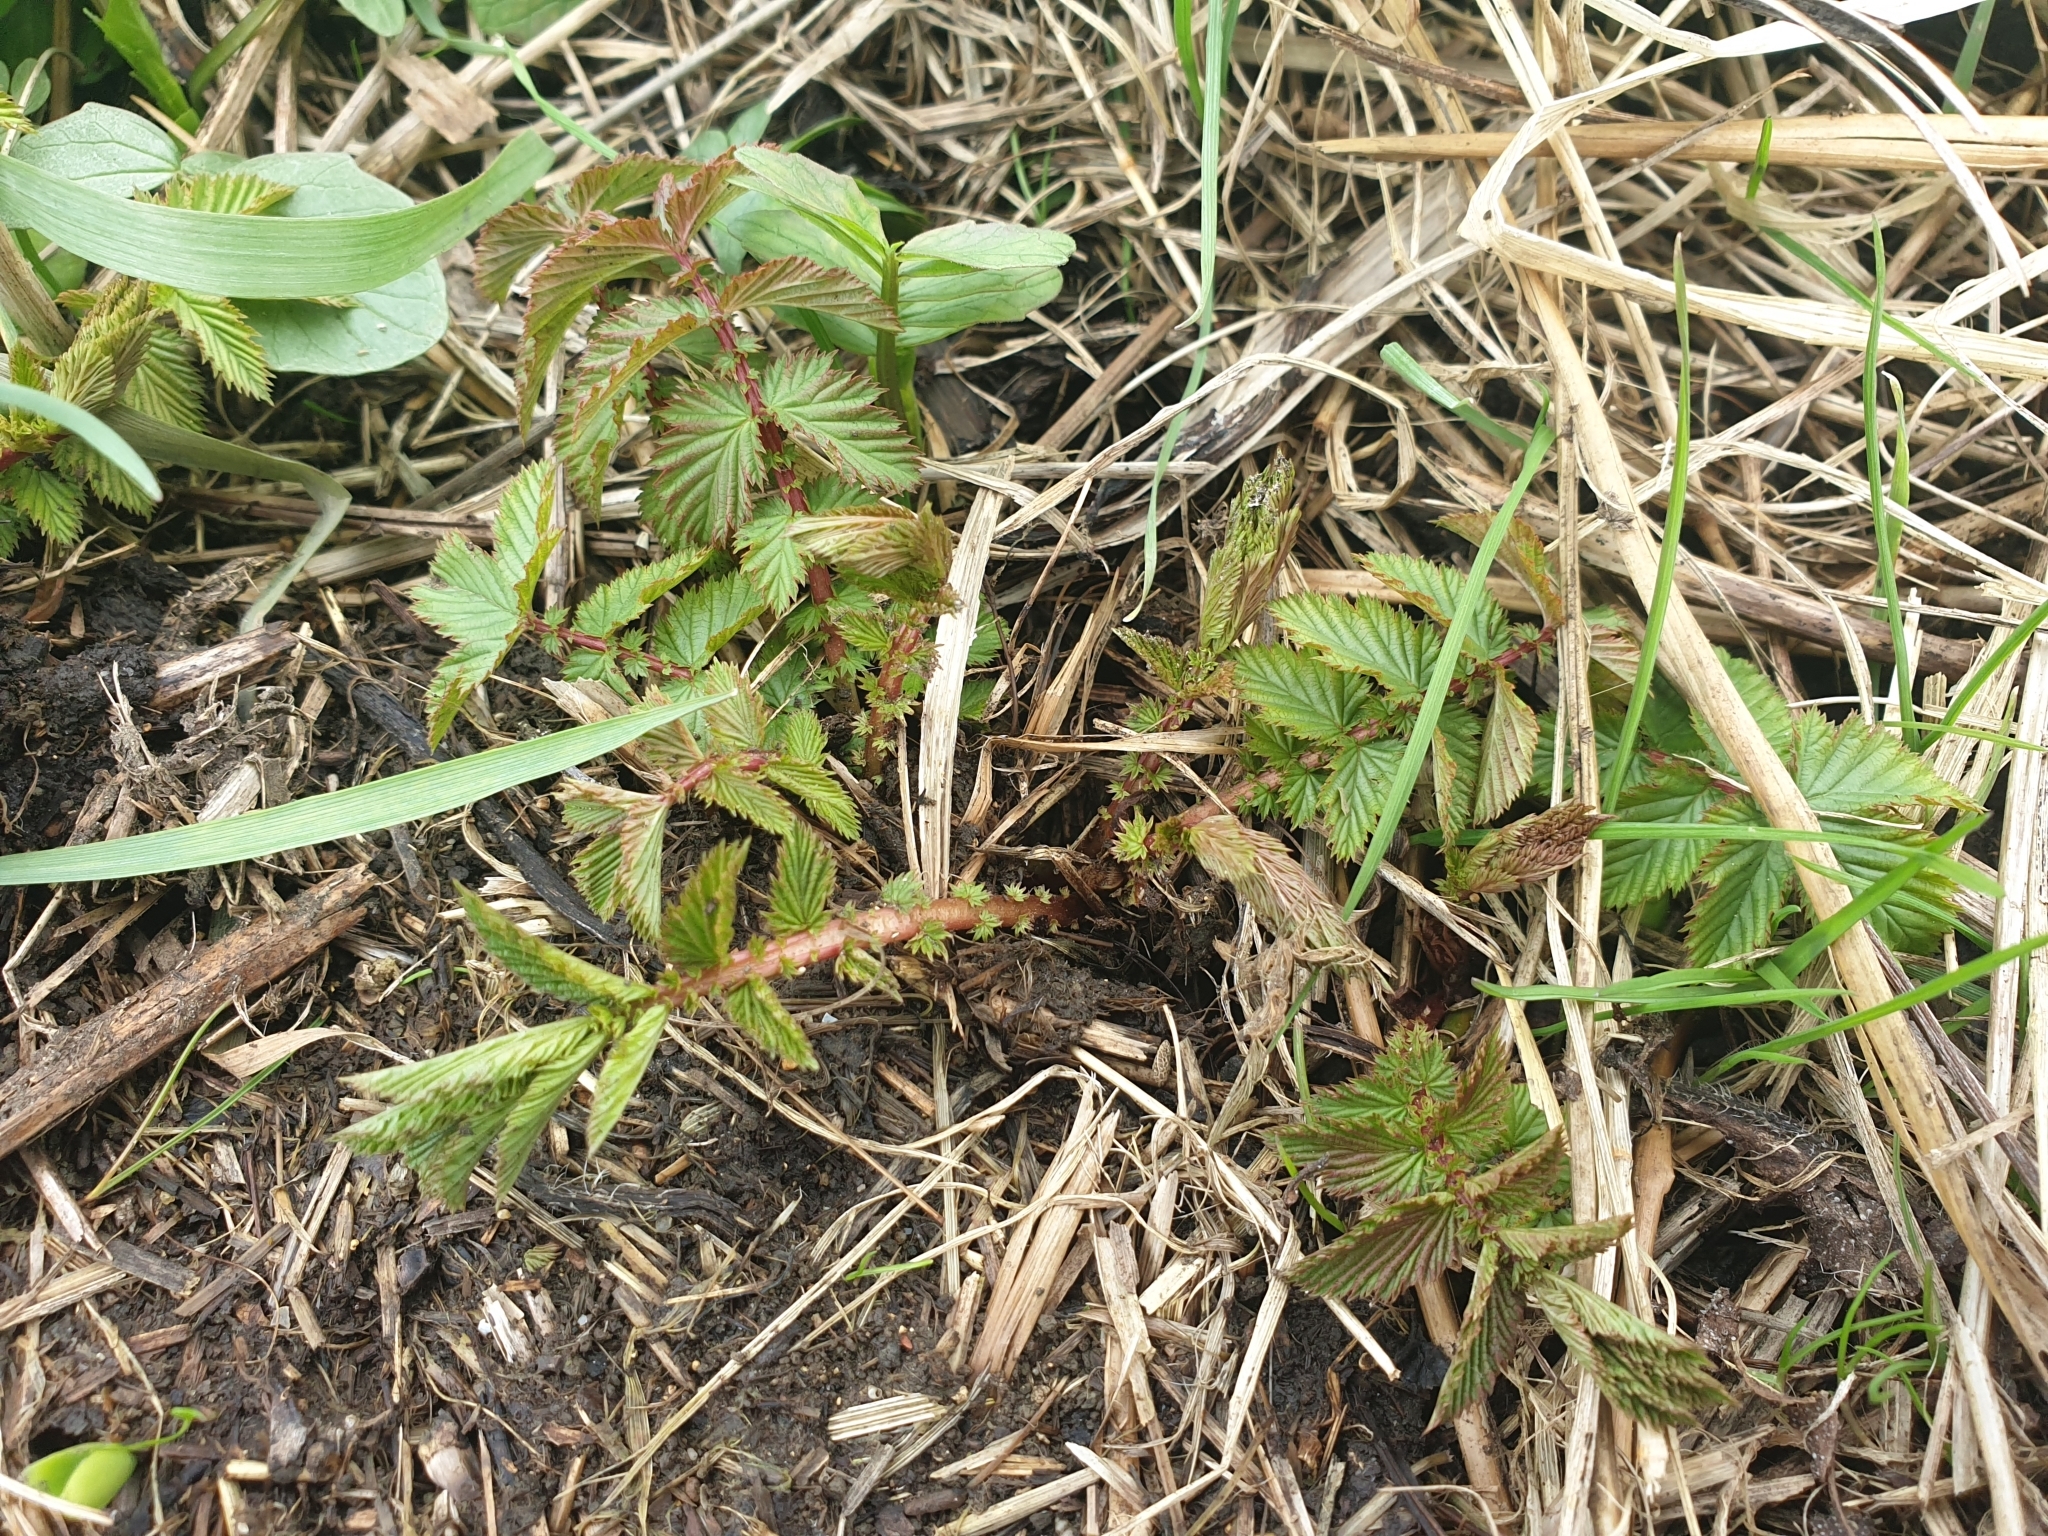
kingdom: Plantae
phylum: Tracheophyta
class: Magnoliopsida
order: Rosales
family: Rosaceae
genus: Filipendula
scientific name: Filipendula ulmaria
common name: Meadowsweet
